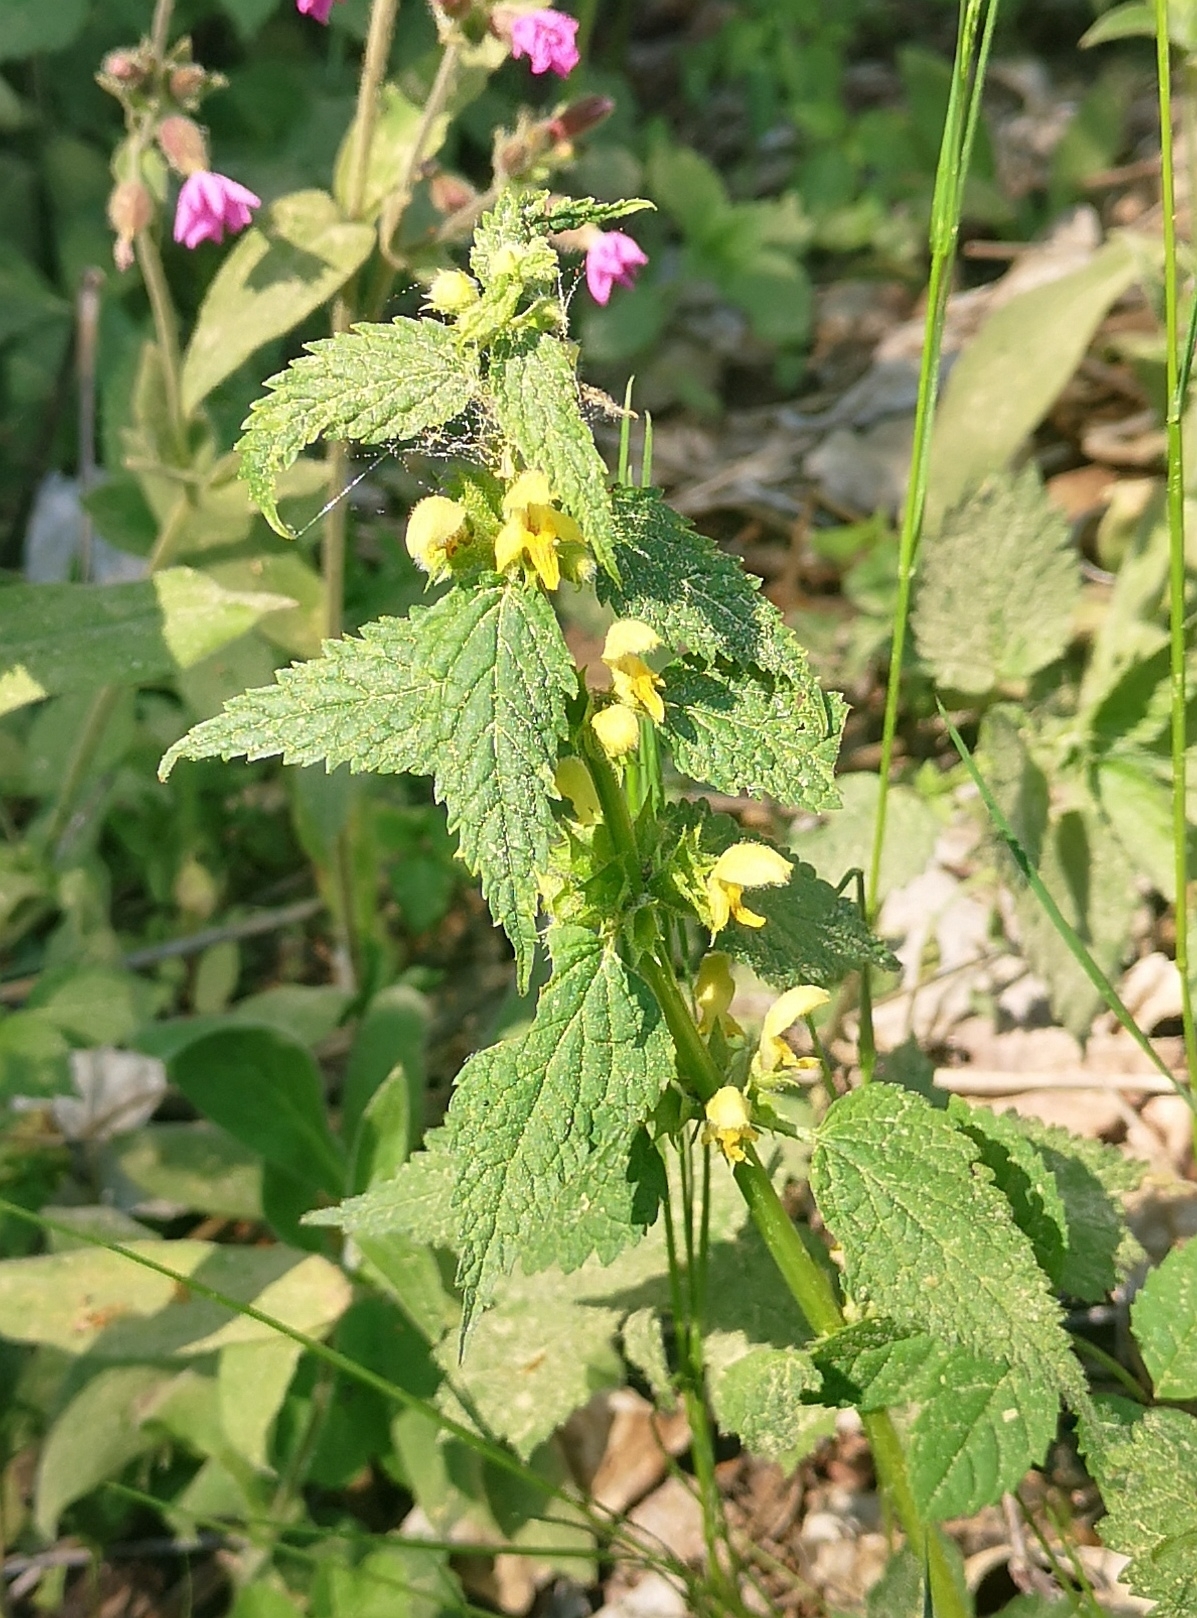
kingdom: Plantae
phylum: Tracheophyta
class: Magnoliopsida
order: Lamiales
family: Lamiaceae
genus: Lamium
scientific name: Lamium galeobdolon
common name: Yellow archangel
